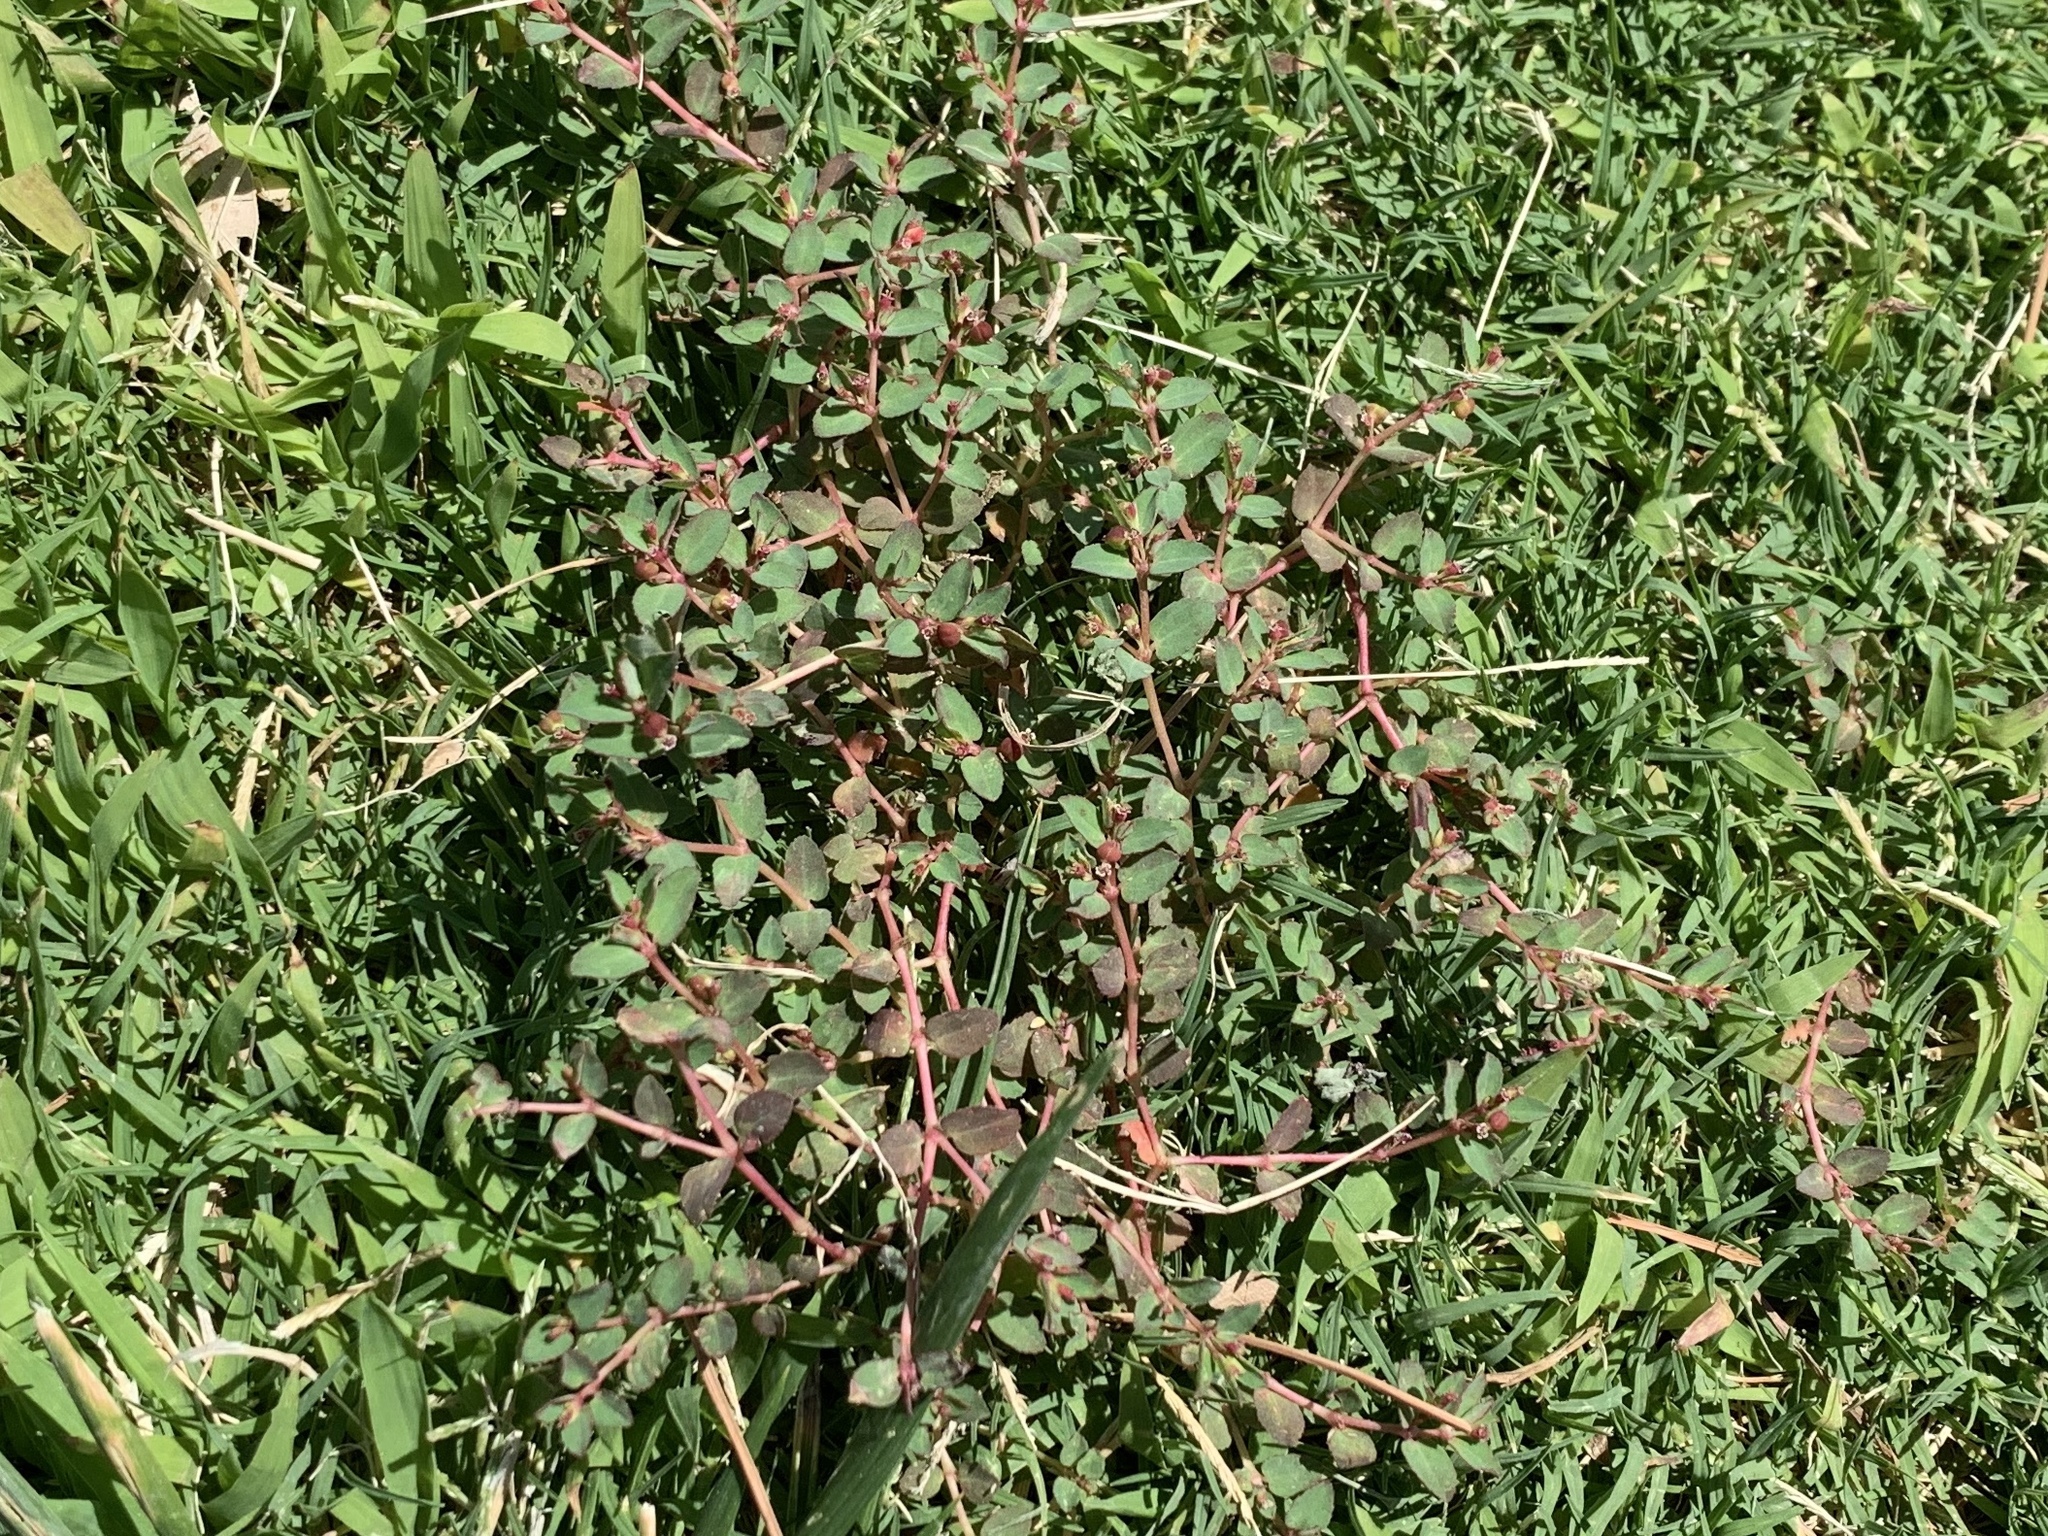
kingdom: Plantae
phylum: Tracheophyta
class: Magnoliopsida
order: Malpighiales
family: Euphorbiaceae
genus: Euphorbia
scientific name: Euphorbia vermiculata
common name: Hairy spurge
